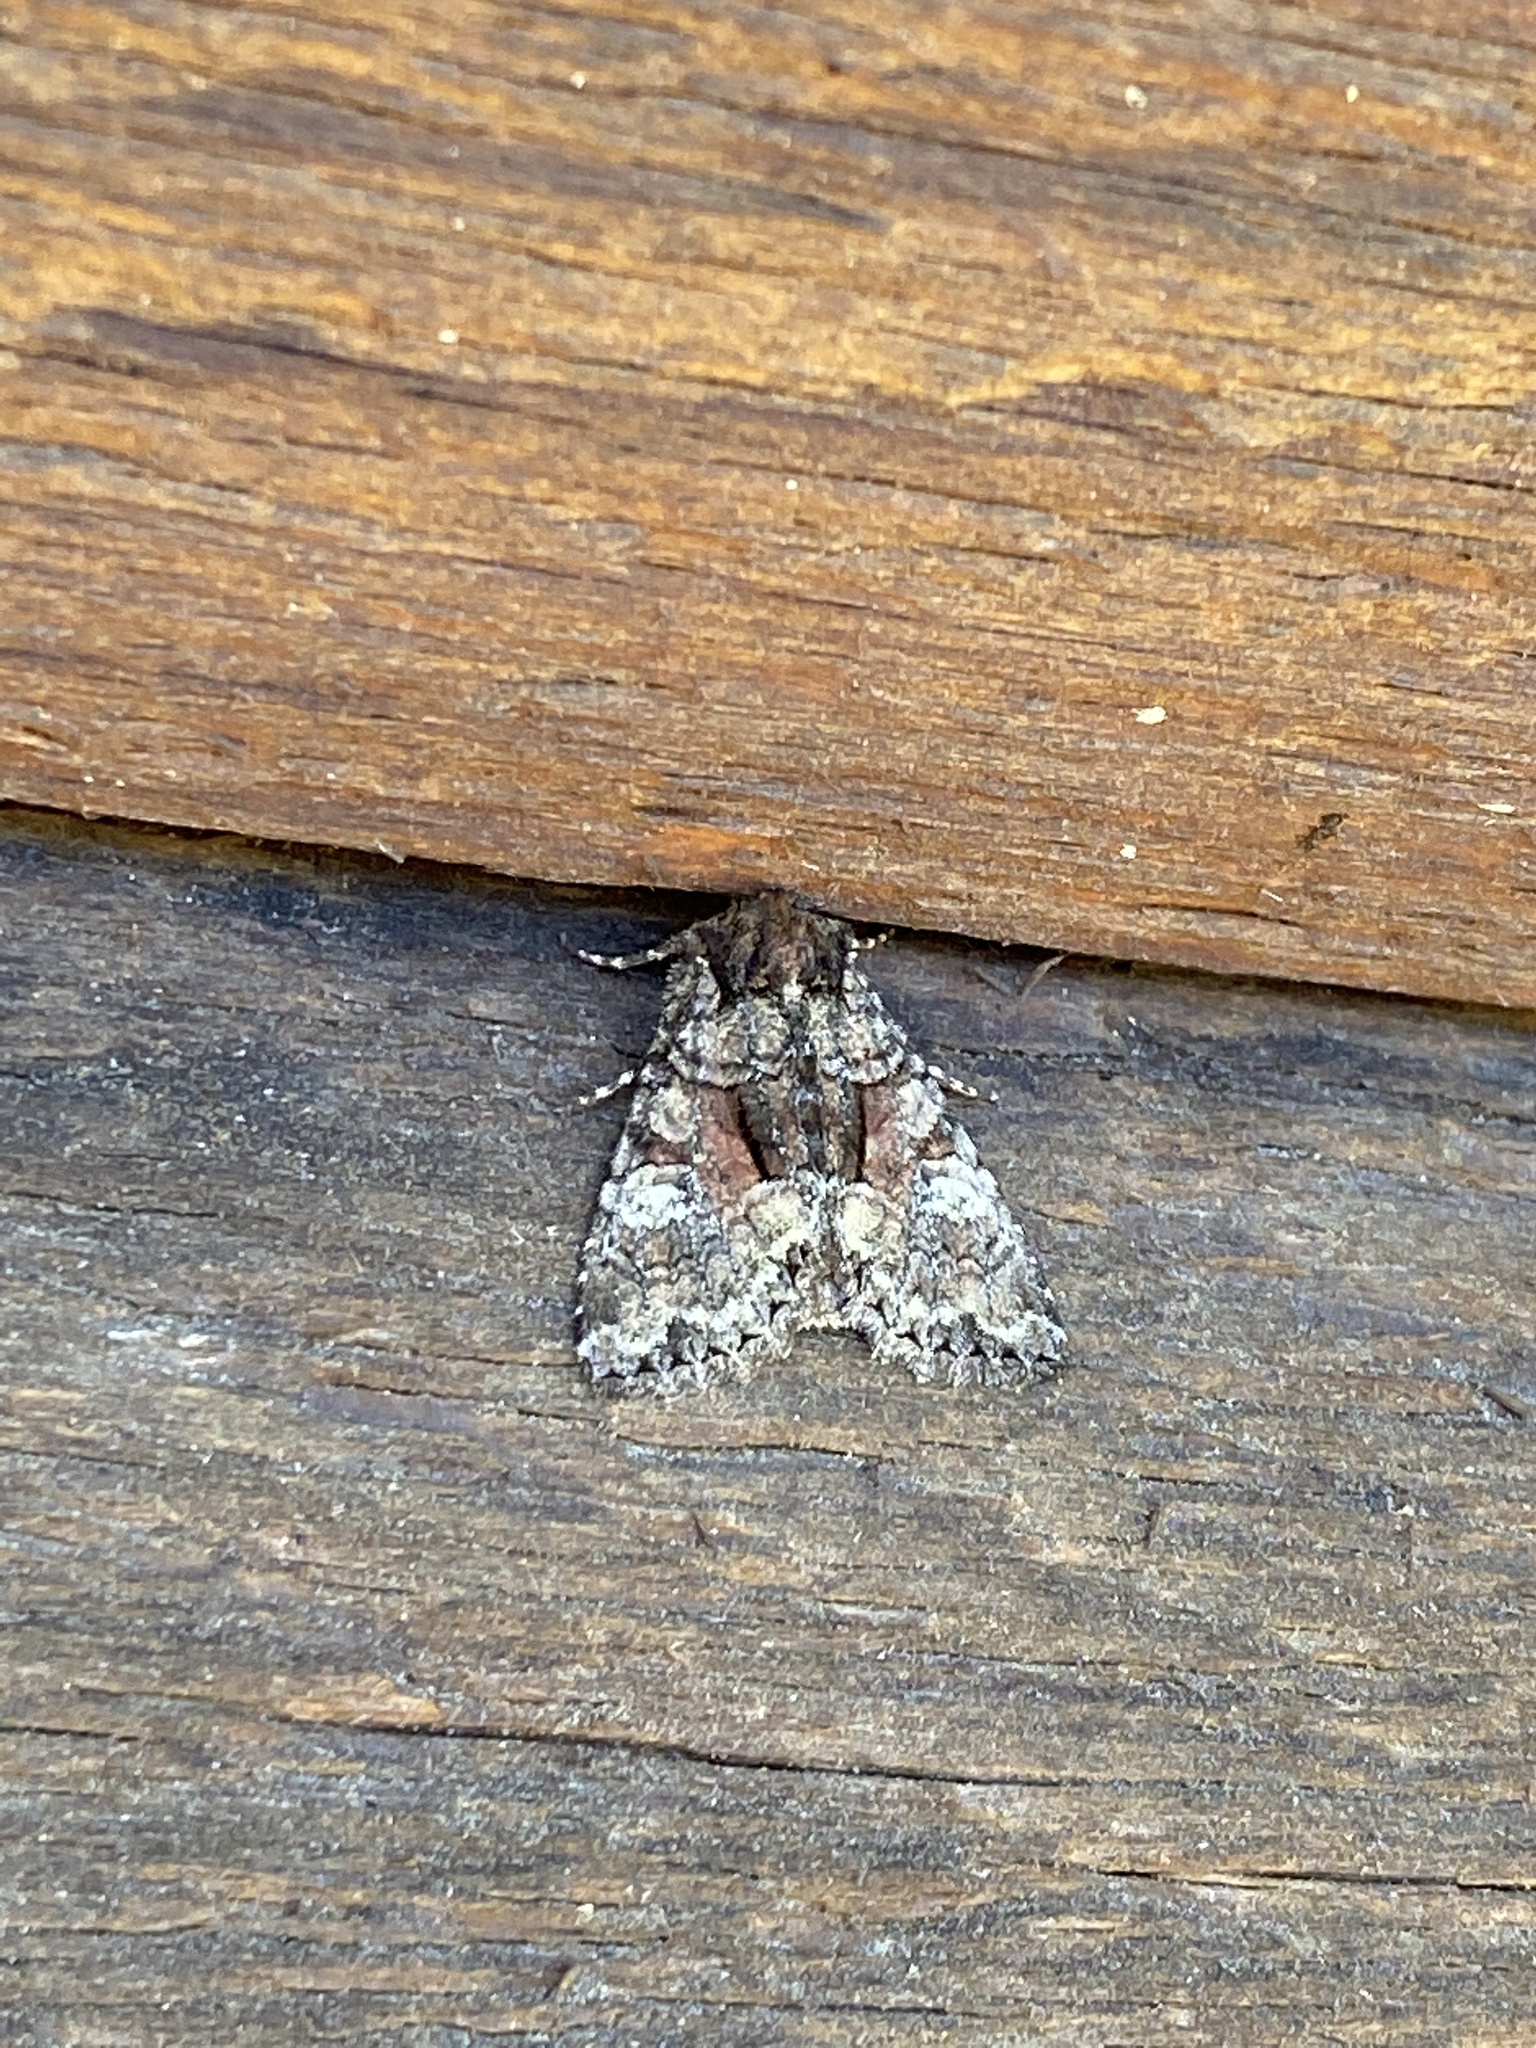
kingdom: Animalia
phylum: Arthropoda
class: Insecta
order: Lepidoptera
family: Noctuidae
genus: Fishia
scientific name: Fishia illocata
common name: Wandering brocade moth
